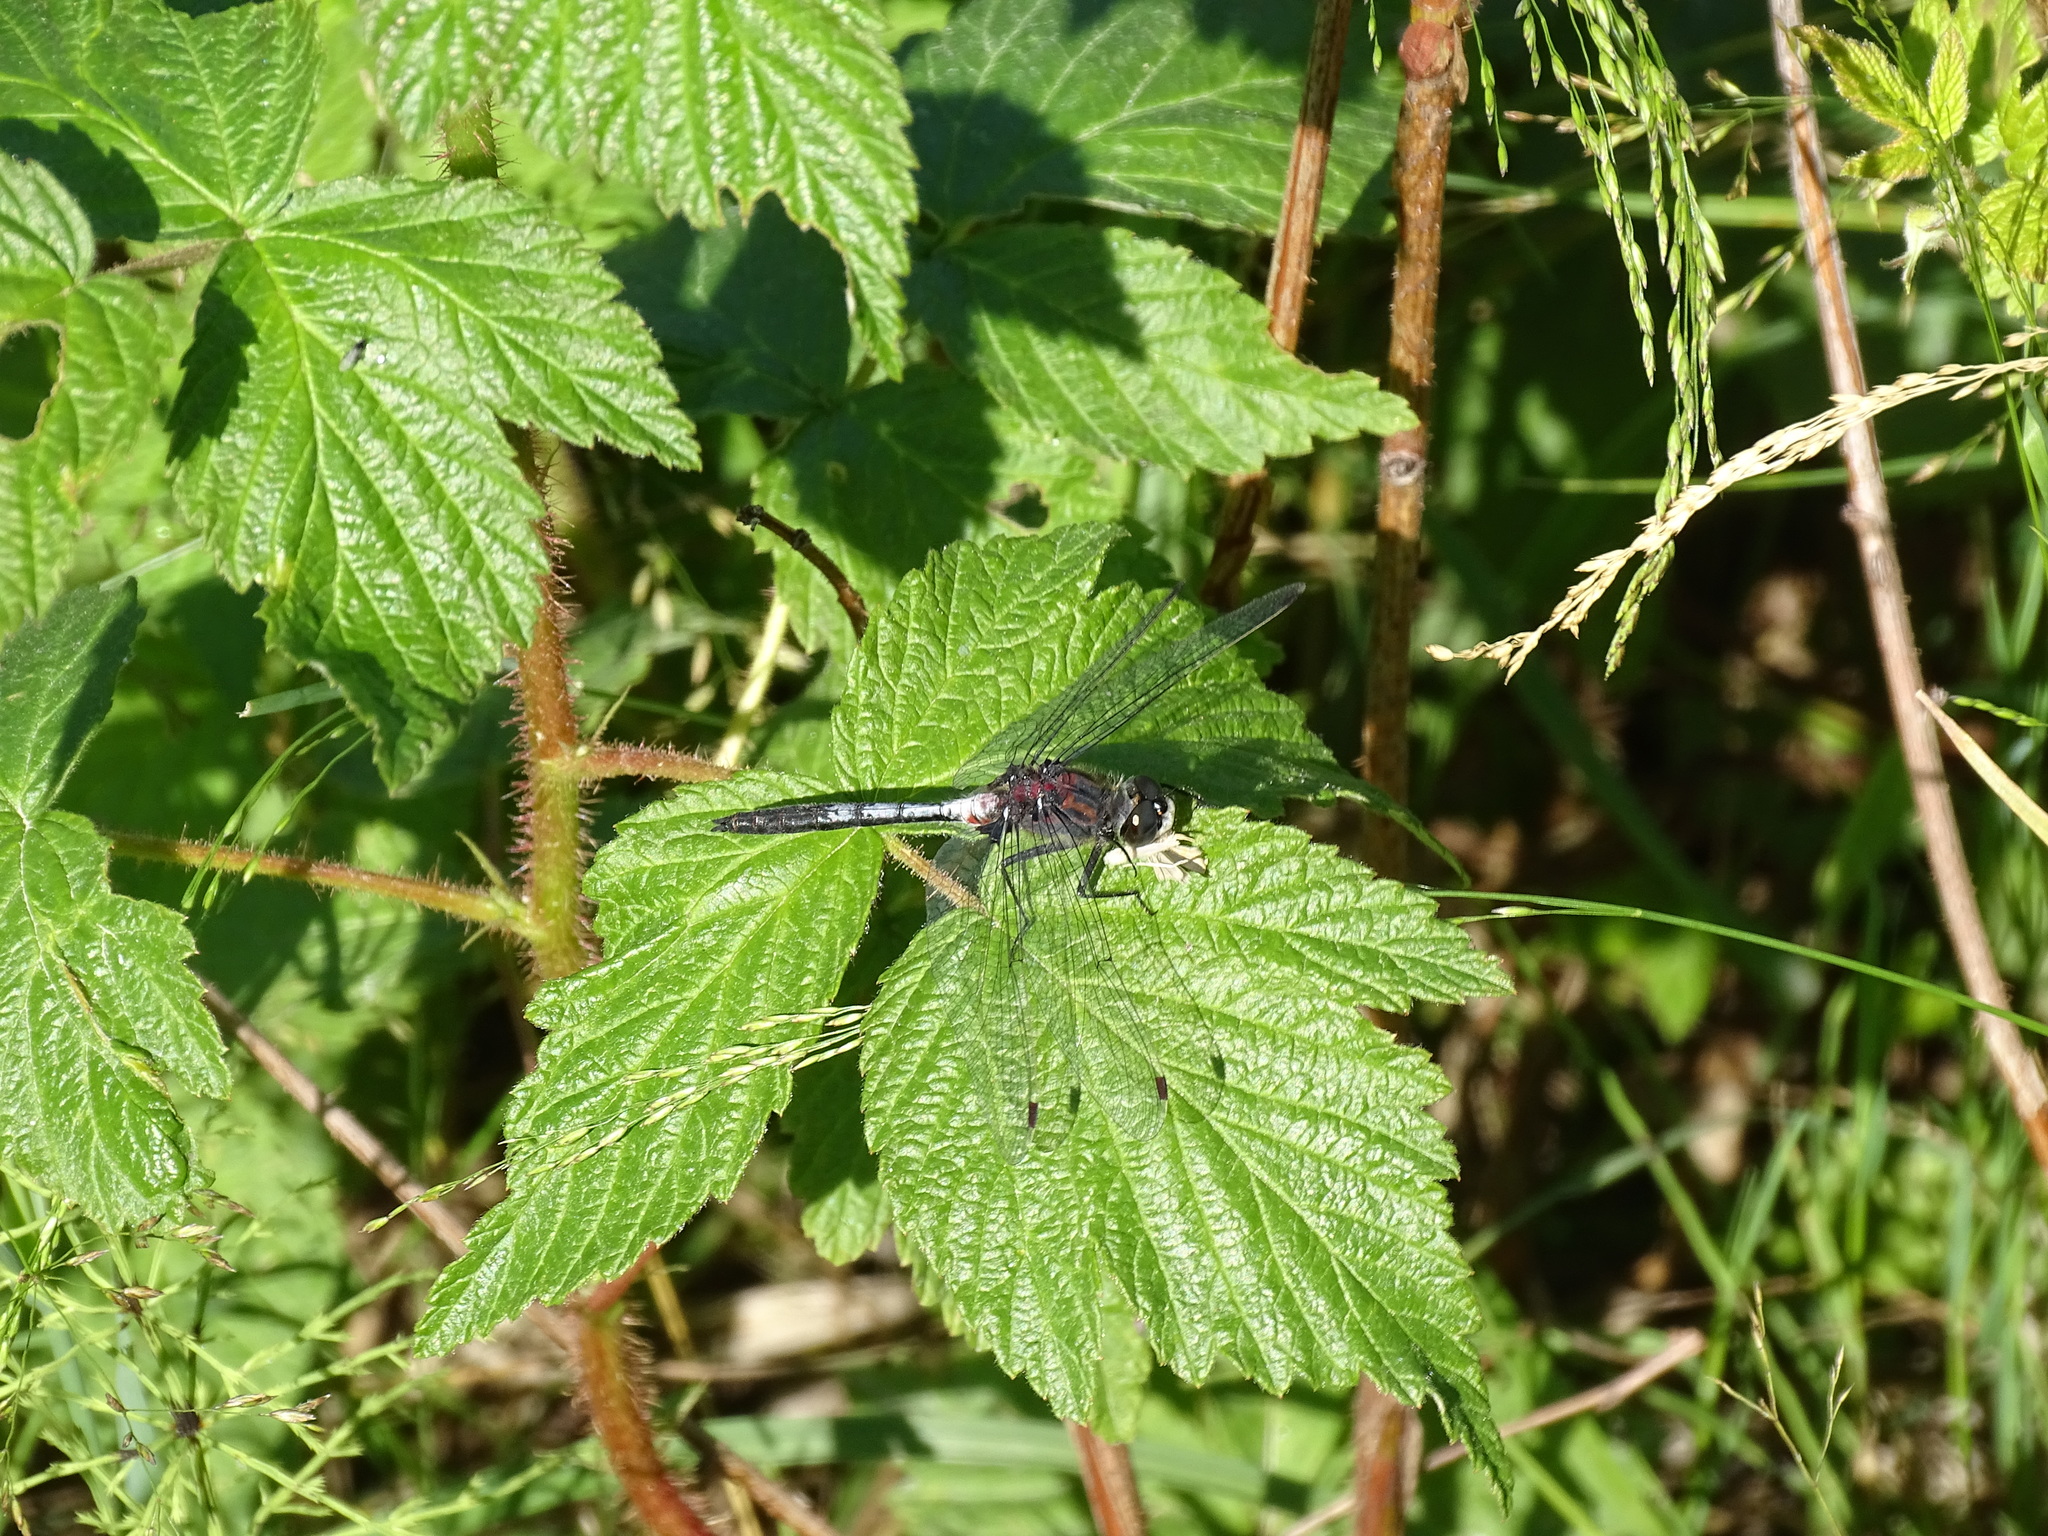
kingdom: Animalia
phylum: Arthropoda
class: Insecta
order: Odonata
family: Libellulidae
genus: Leucorrhinia
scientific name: Leucorrhinia proxima
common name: Belted whiteface
